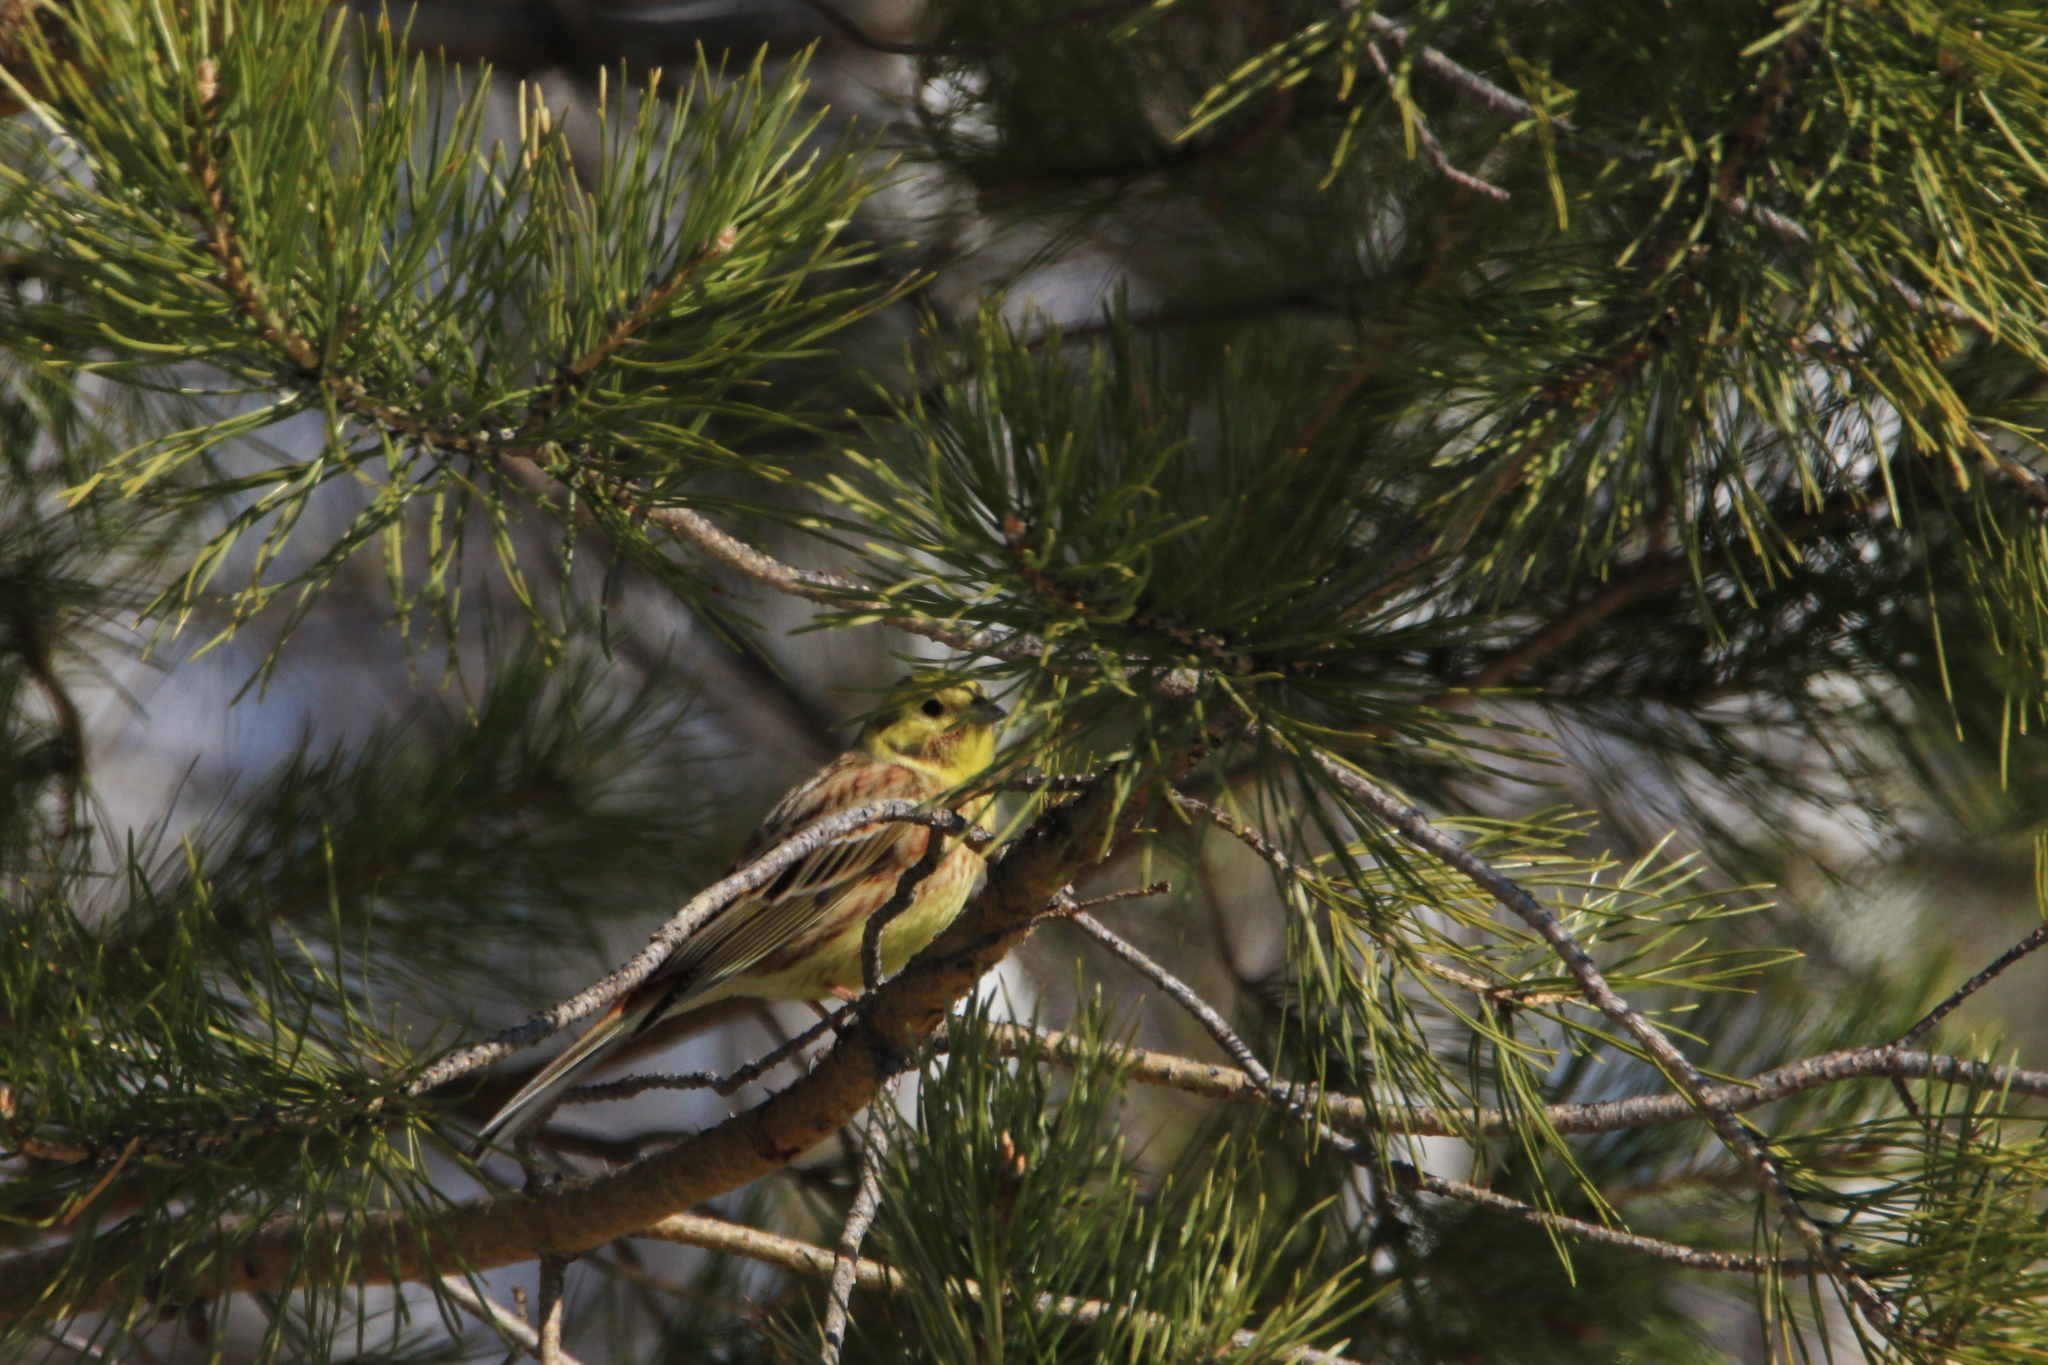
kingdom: Animalia
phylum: Chordata
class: Aves
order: Passeriformes
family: Emberizidae
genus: Emberiza
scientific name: Emberiza citrinella
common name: Yellowhammer
